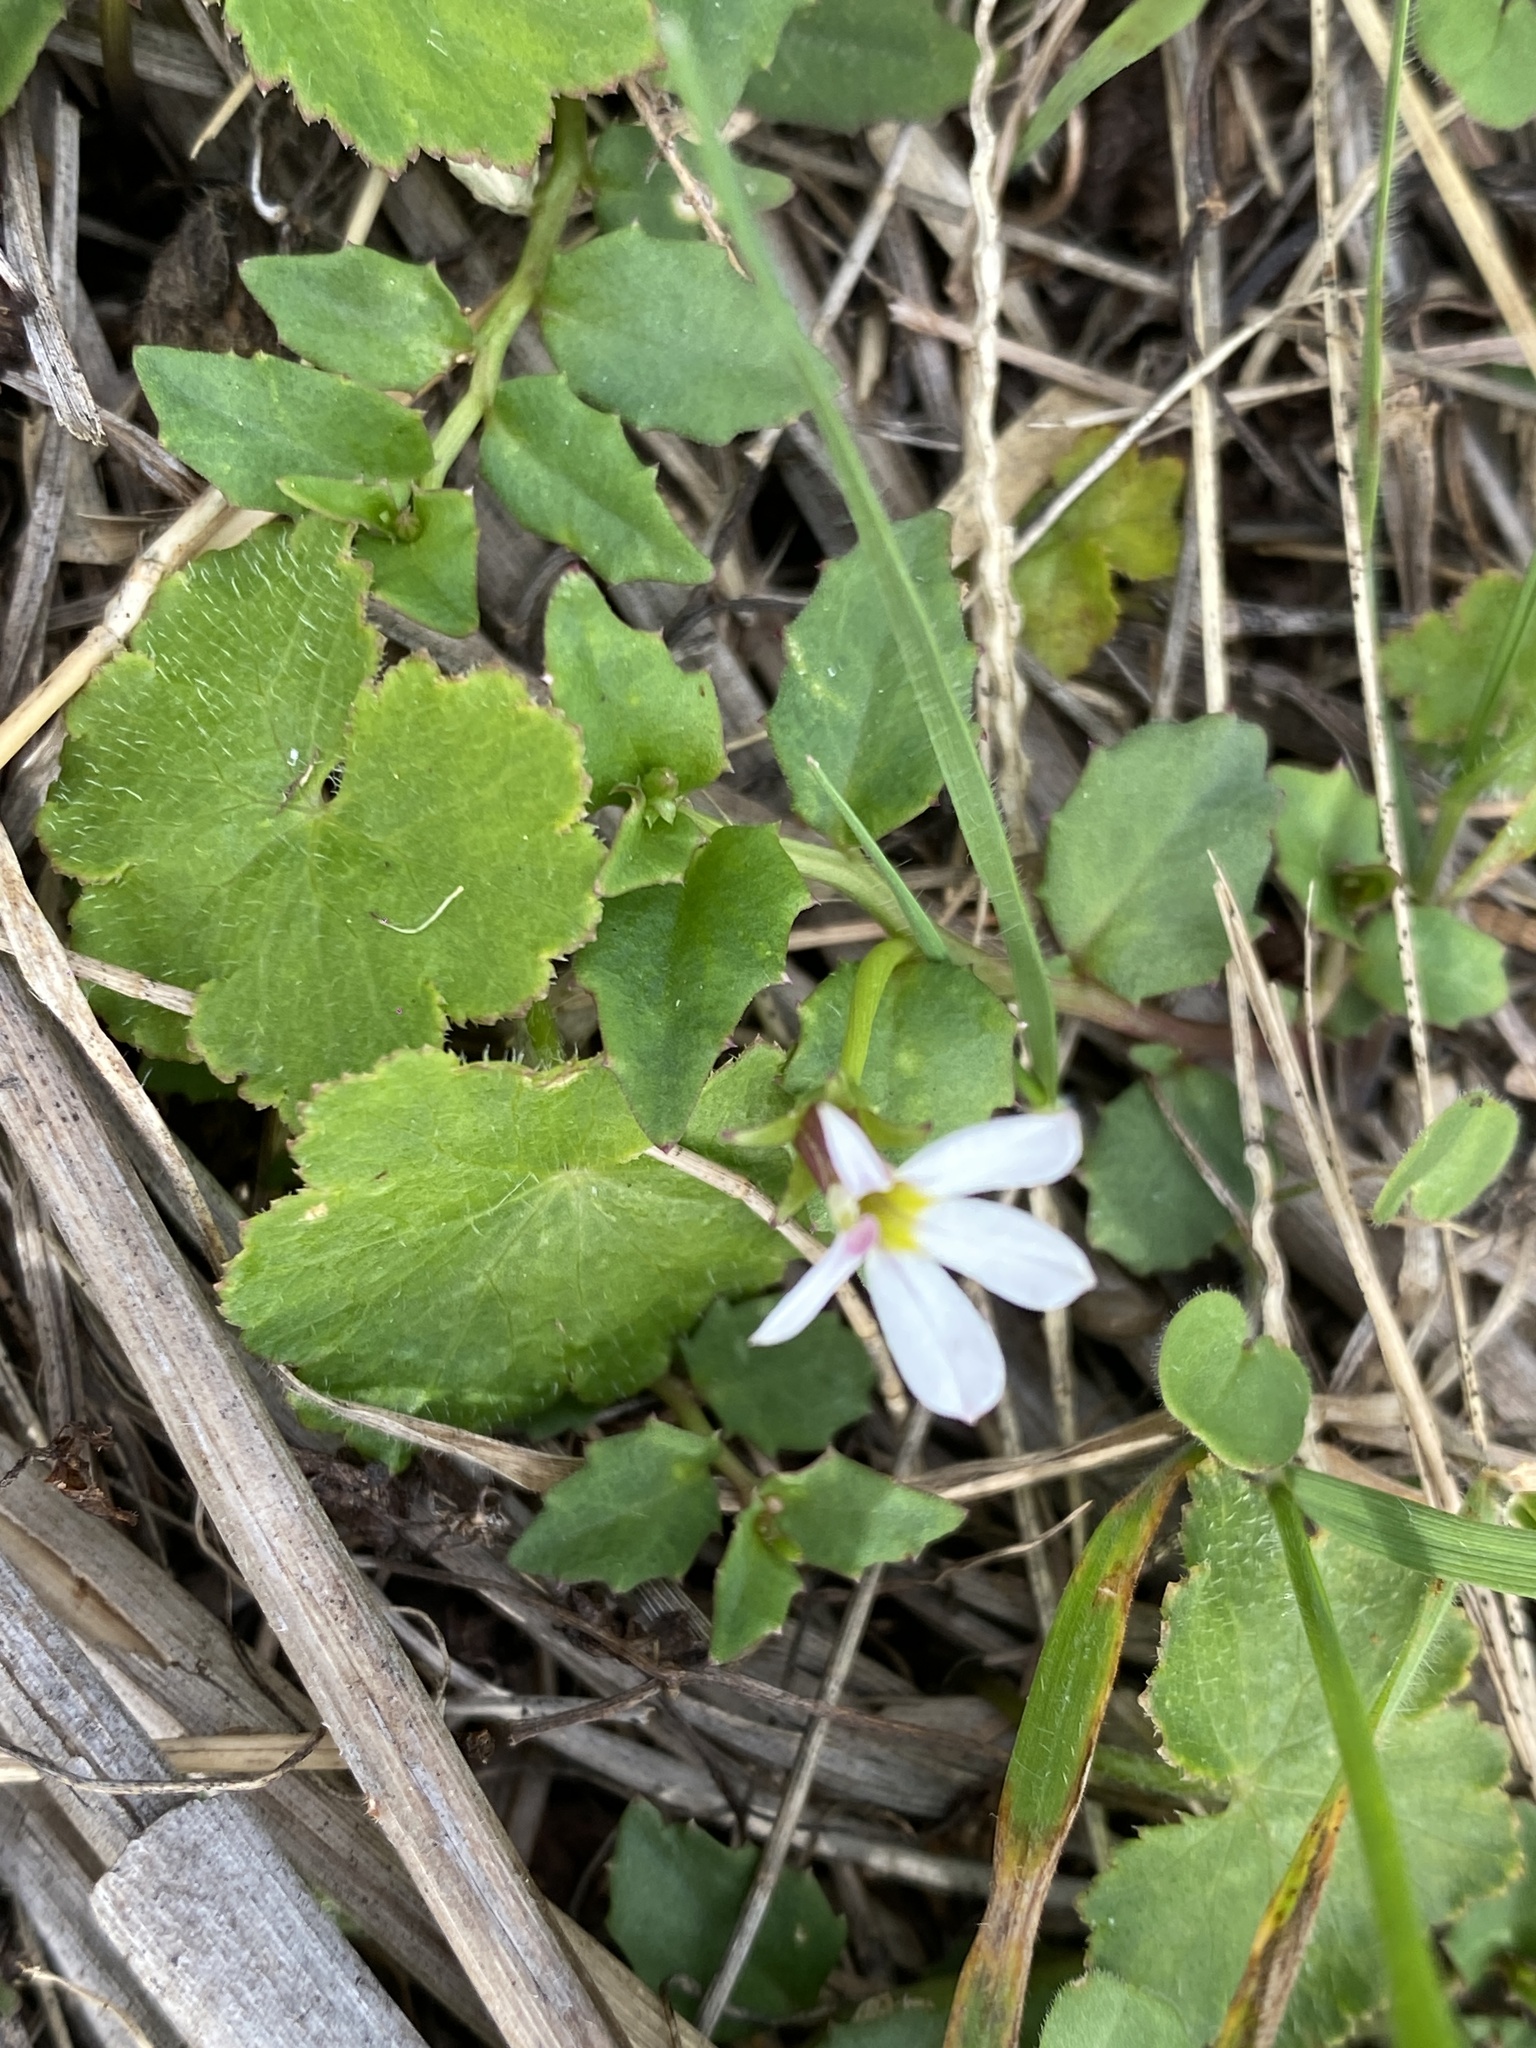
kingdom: Plantae
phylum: Tracheophyta
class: Magnoliopsida
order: Asterales
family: Campanulaceae
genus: Lobelia
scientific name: Lobelia purpurascens
